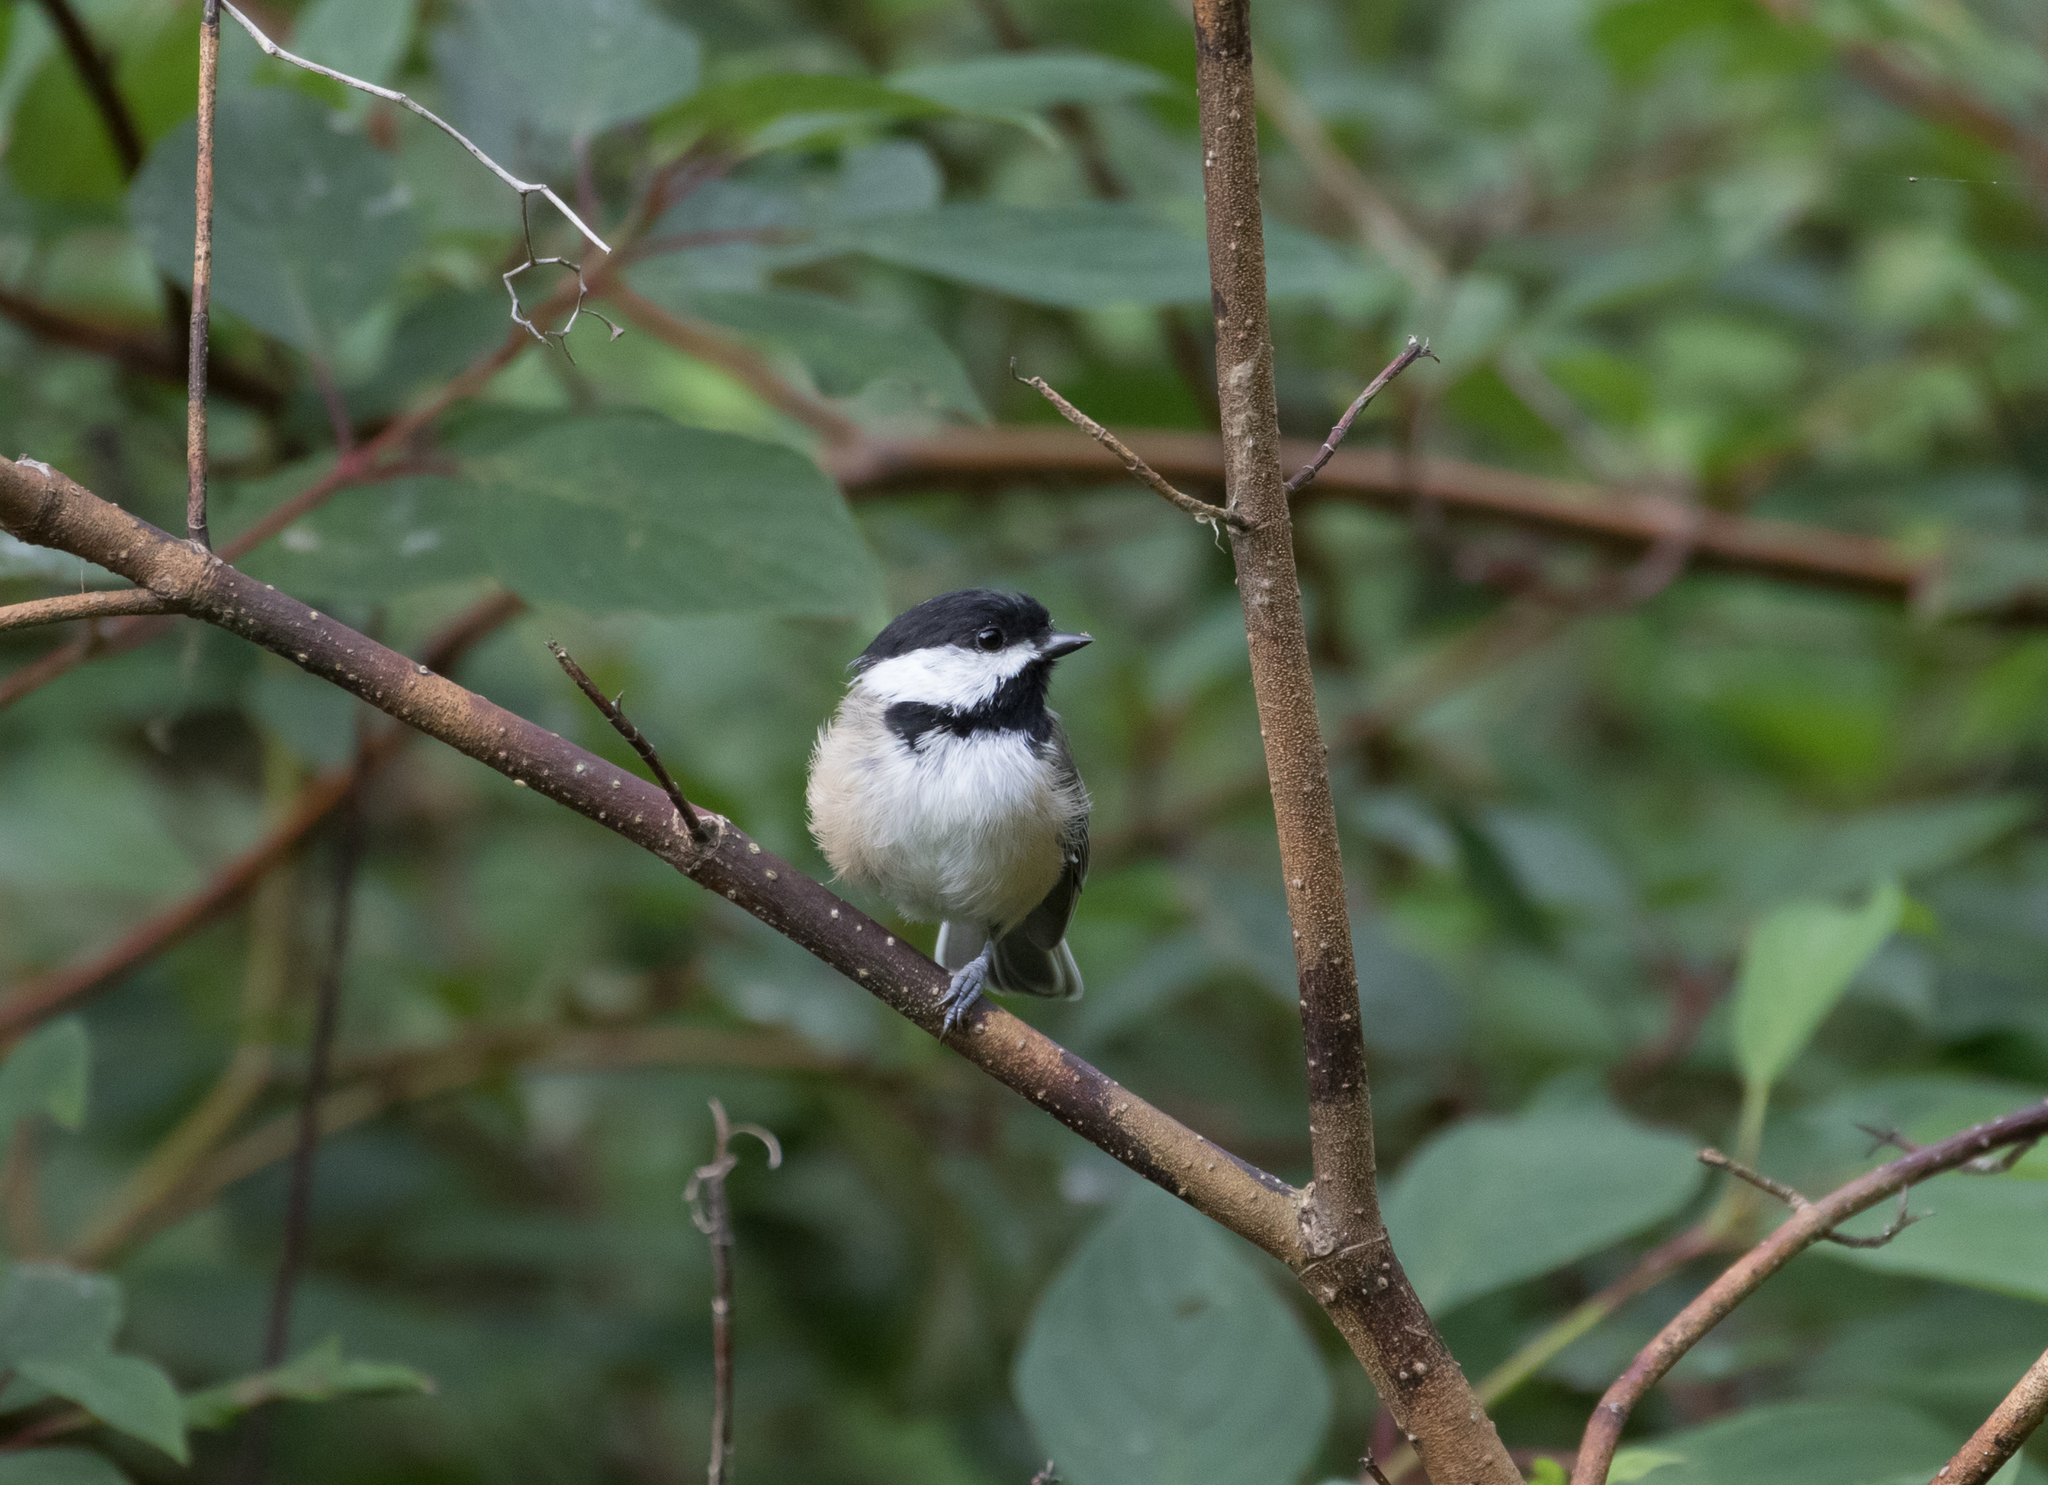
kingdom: Animalia
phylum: Chordata
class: Aves
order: Passeriformes
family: Paridae
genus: Poecile
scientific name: Poecile atricapillus
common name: Black-capped chickadee
